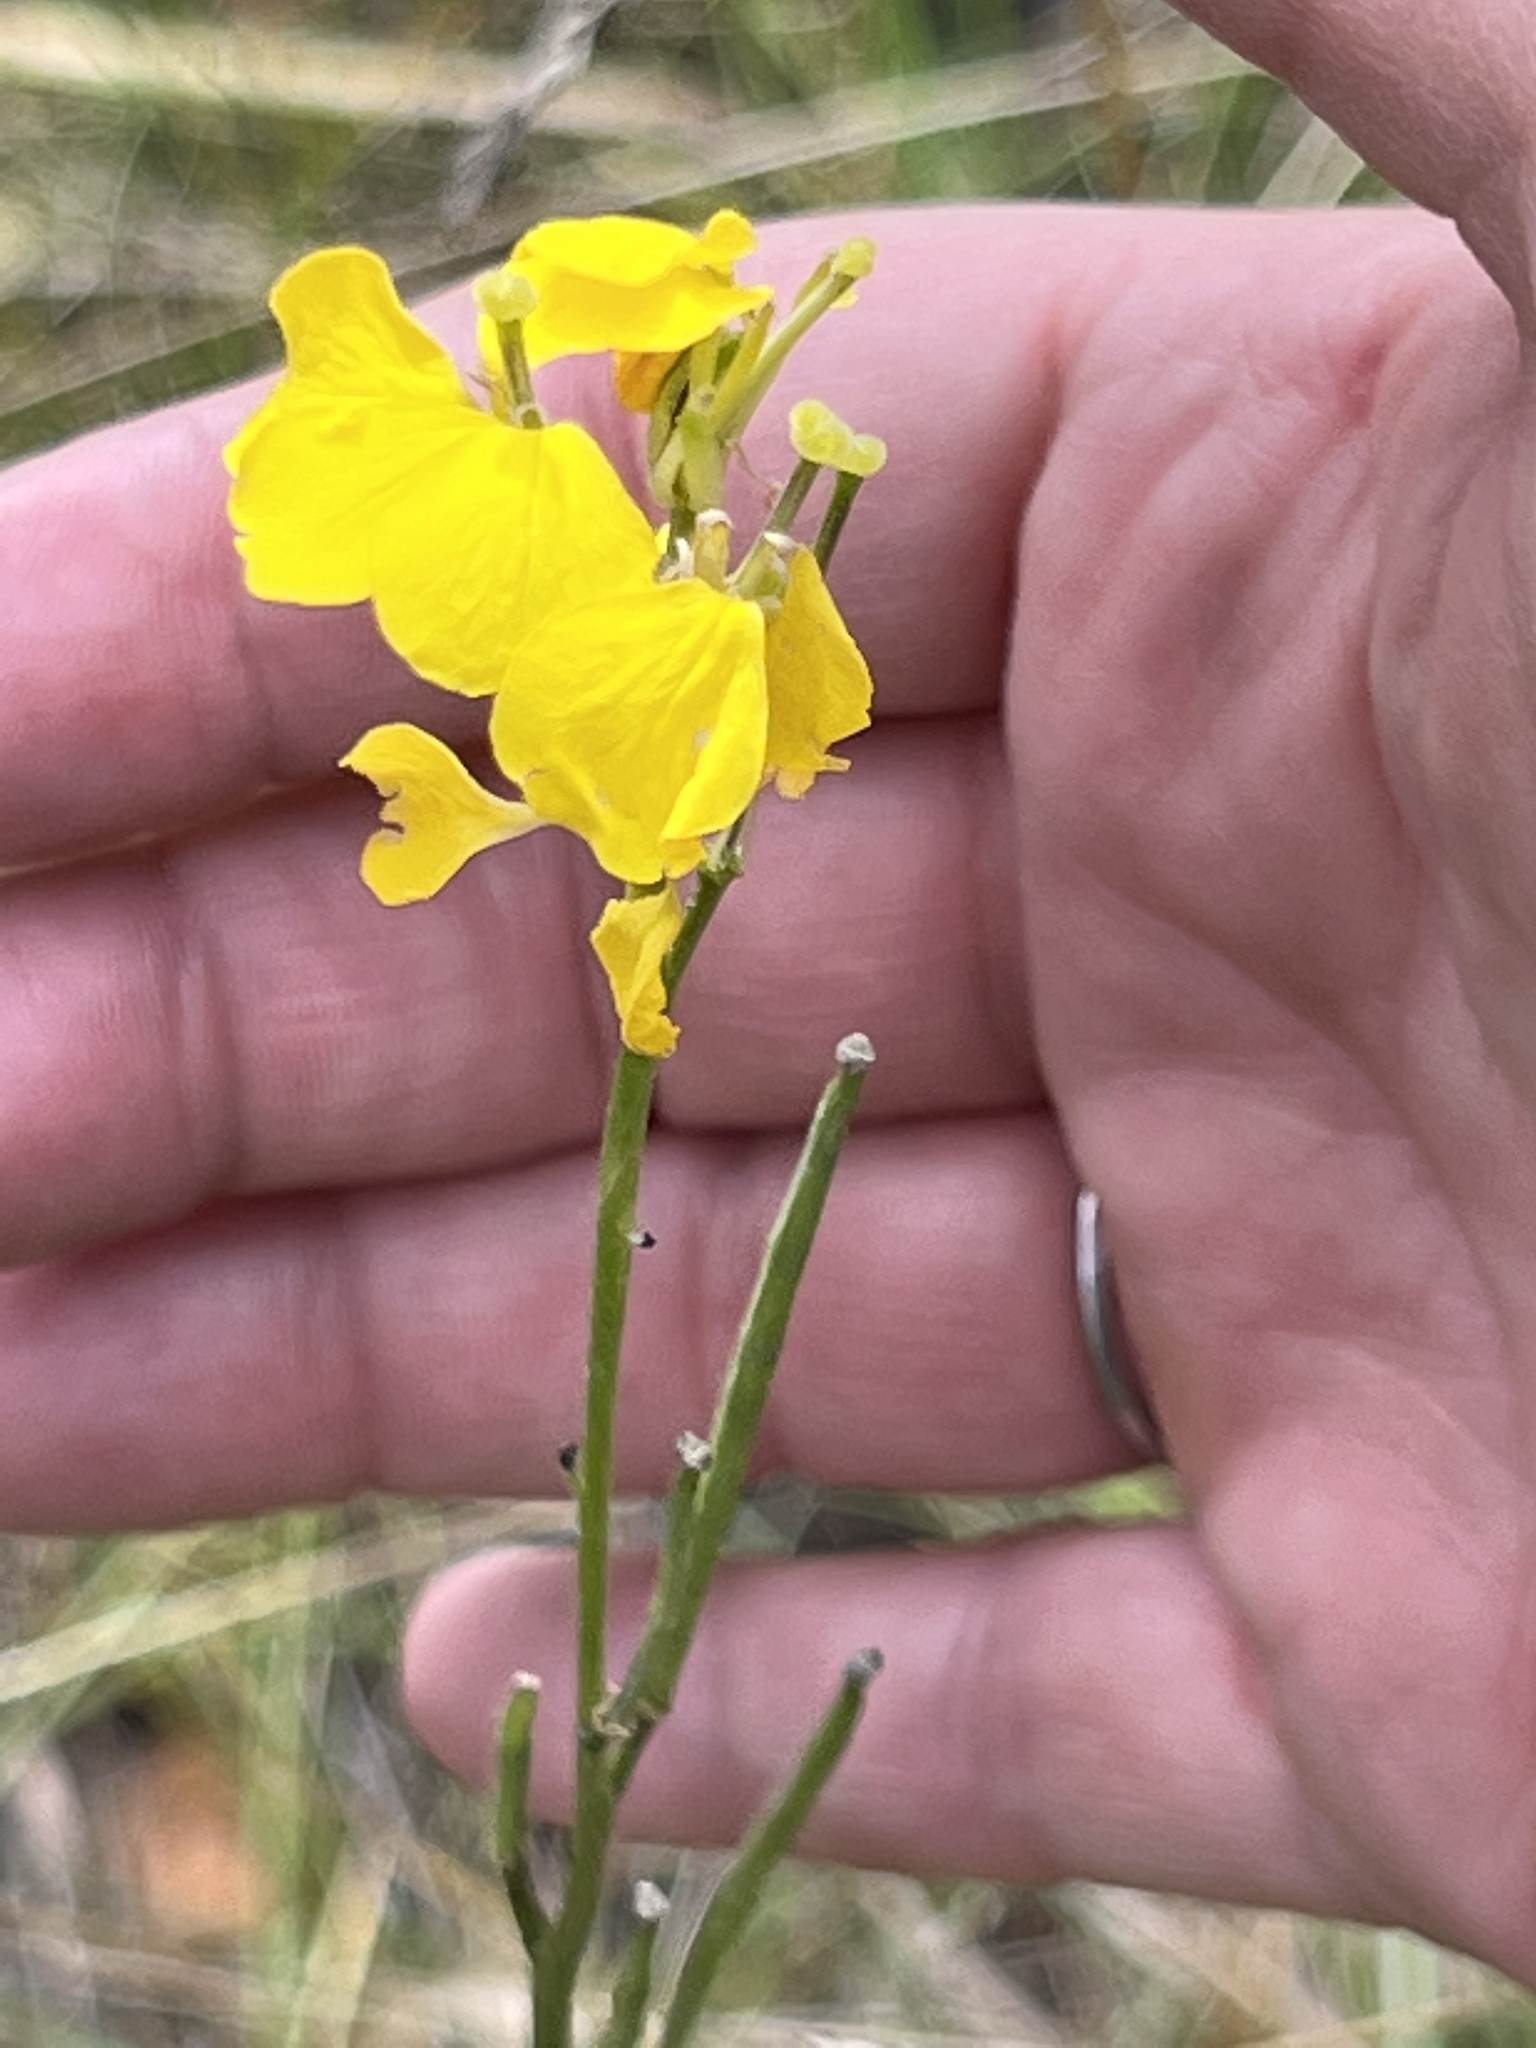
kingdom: Plantae
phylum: Tracheophyta
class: Magnoliopsida
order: Brassicales
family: Brassicaceae
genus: Erysimum
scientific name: Erysimum capitatum
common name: Western wallflower
